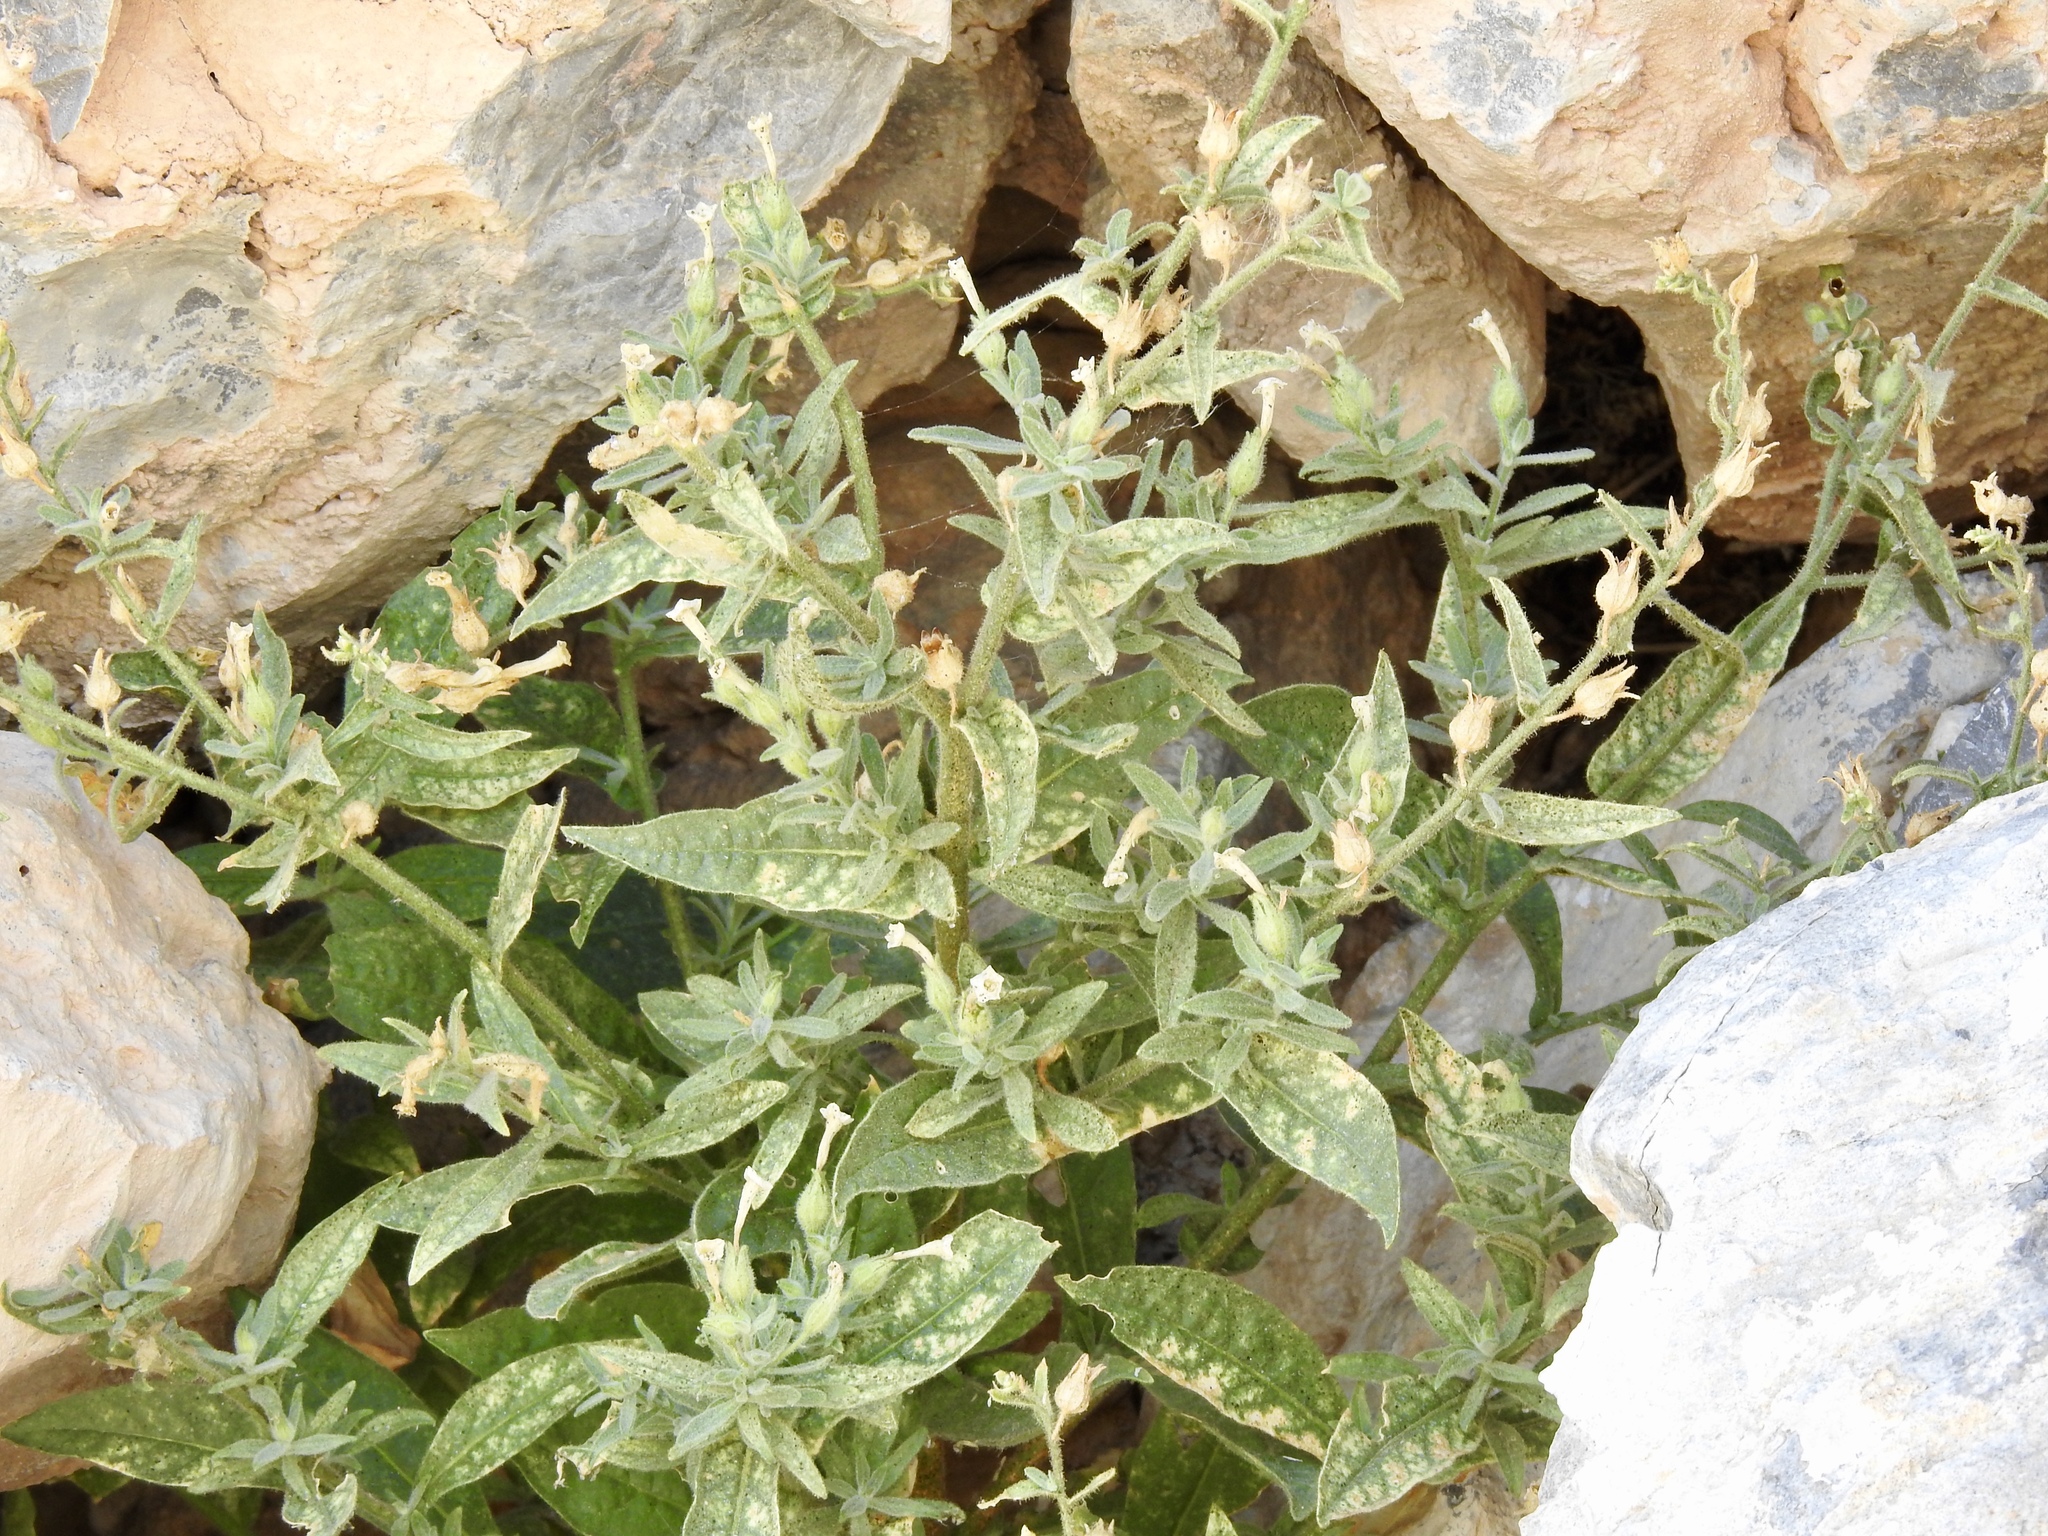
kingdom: Plantae
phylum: Tracheophyta
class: Magnoliopsida
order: Solanales
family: Solanaceae
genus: Nicotiana
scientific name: Nicotiana obtusifolia
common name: Desert tobacco
